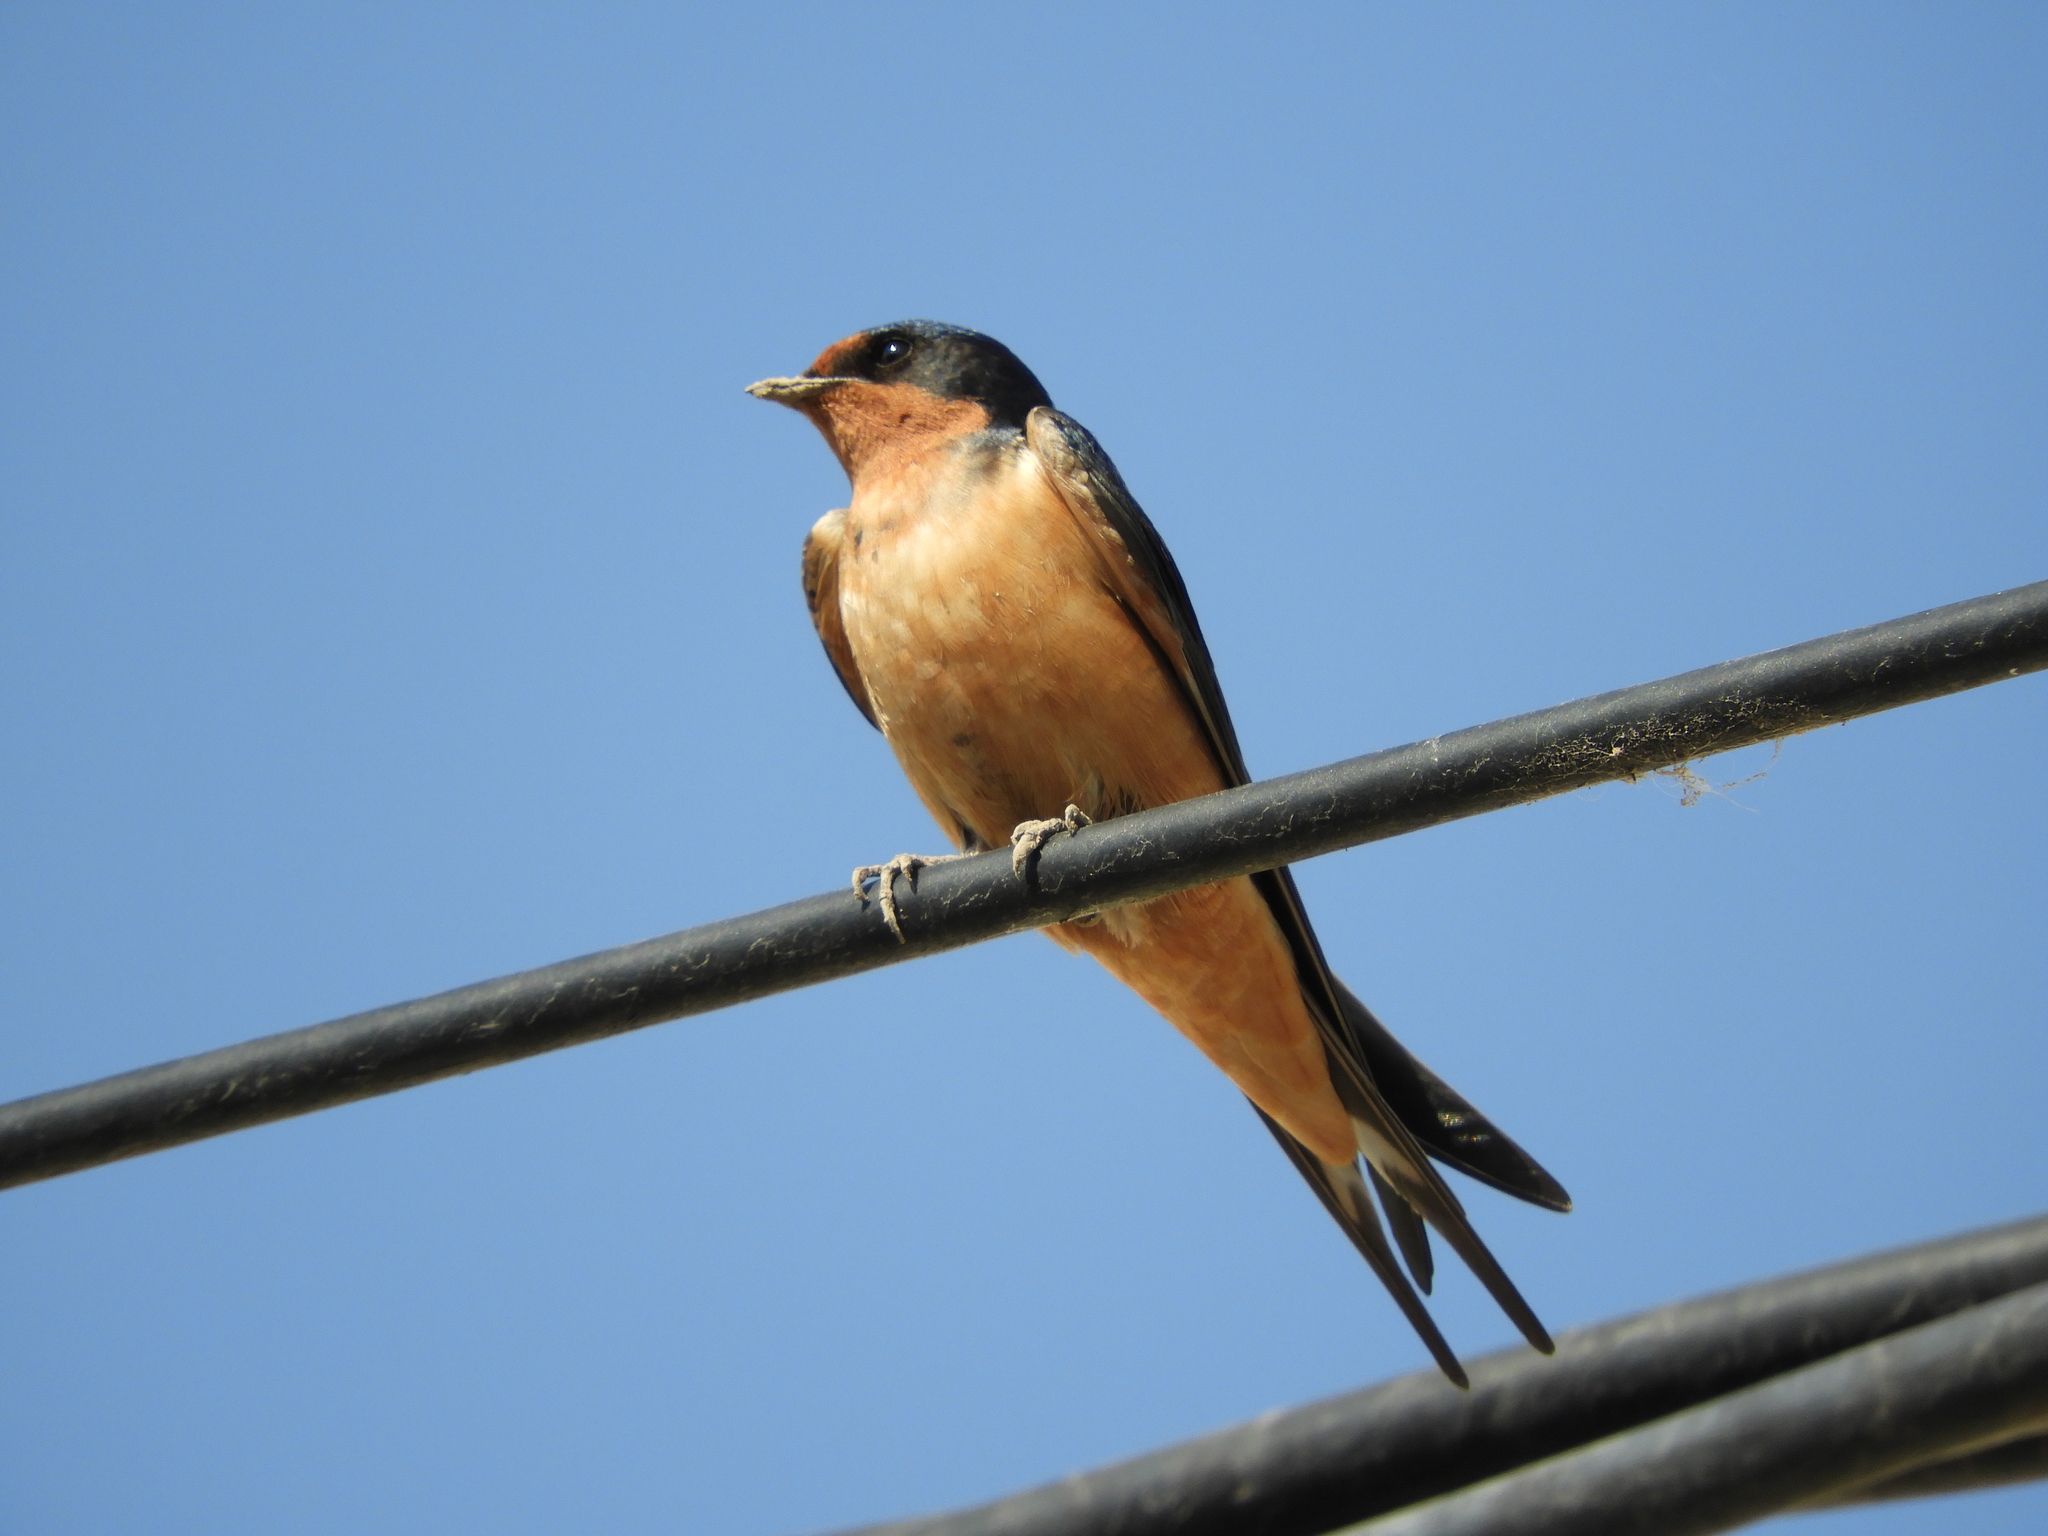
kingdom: Animalia
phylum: Chordata
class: Aves
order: Passeriformes
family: Hirundinidae
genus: Hirundo
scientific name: Hirundo rustica
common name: Barn swallow
